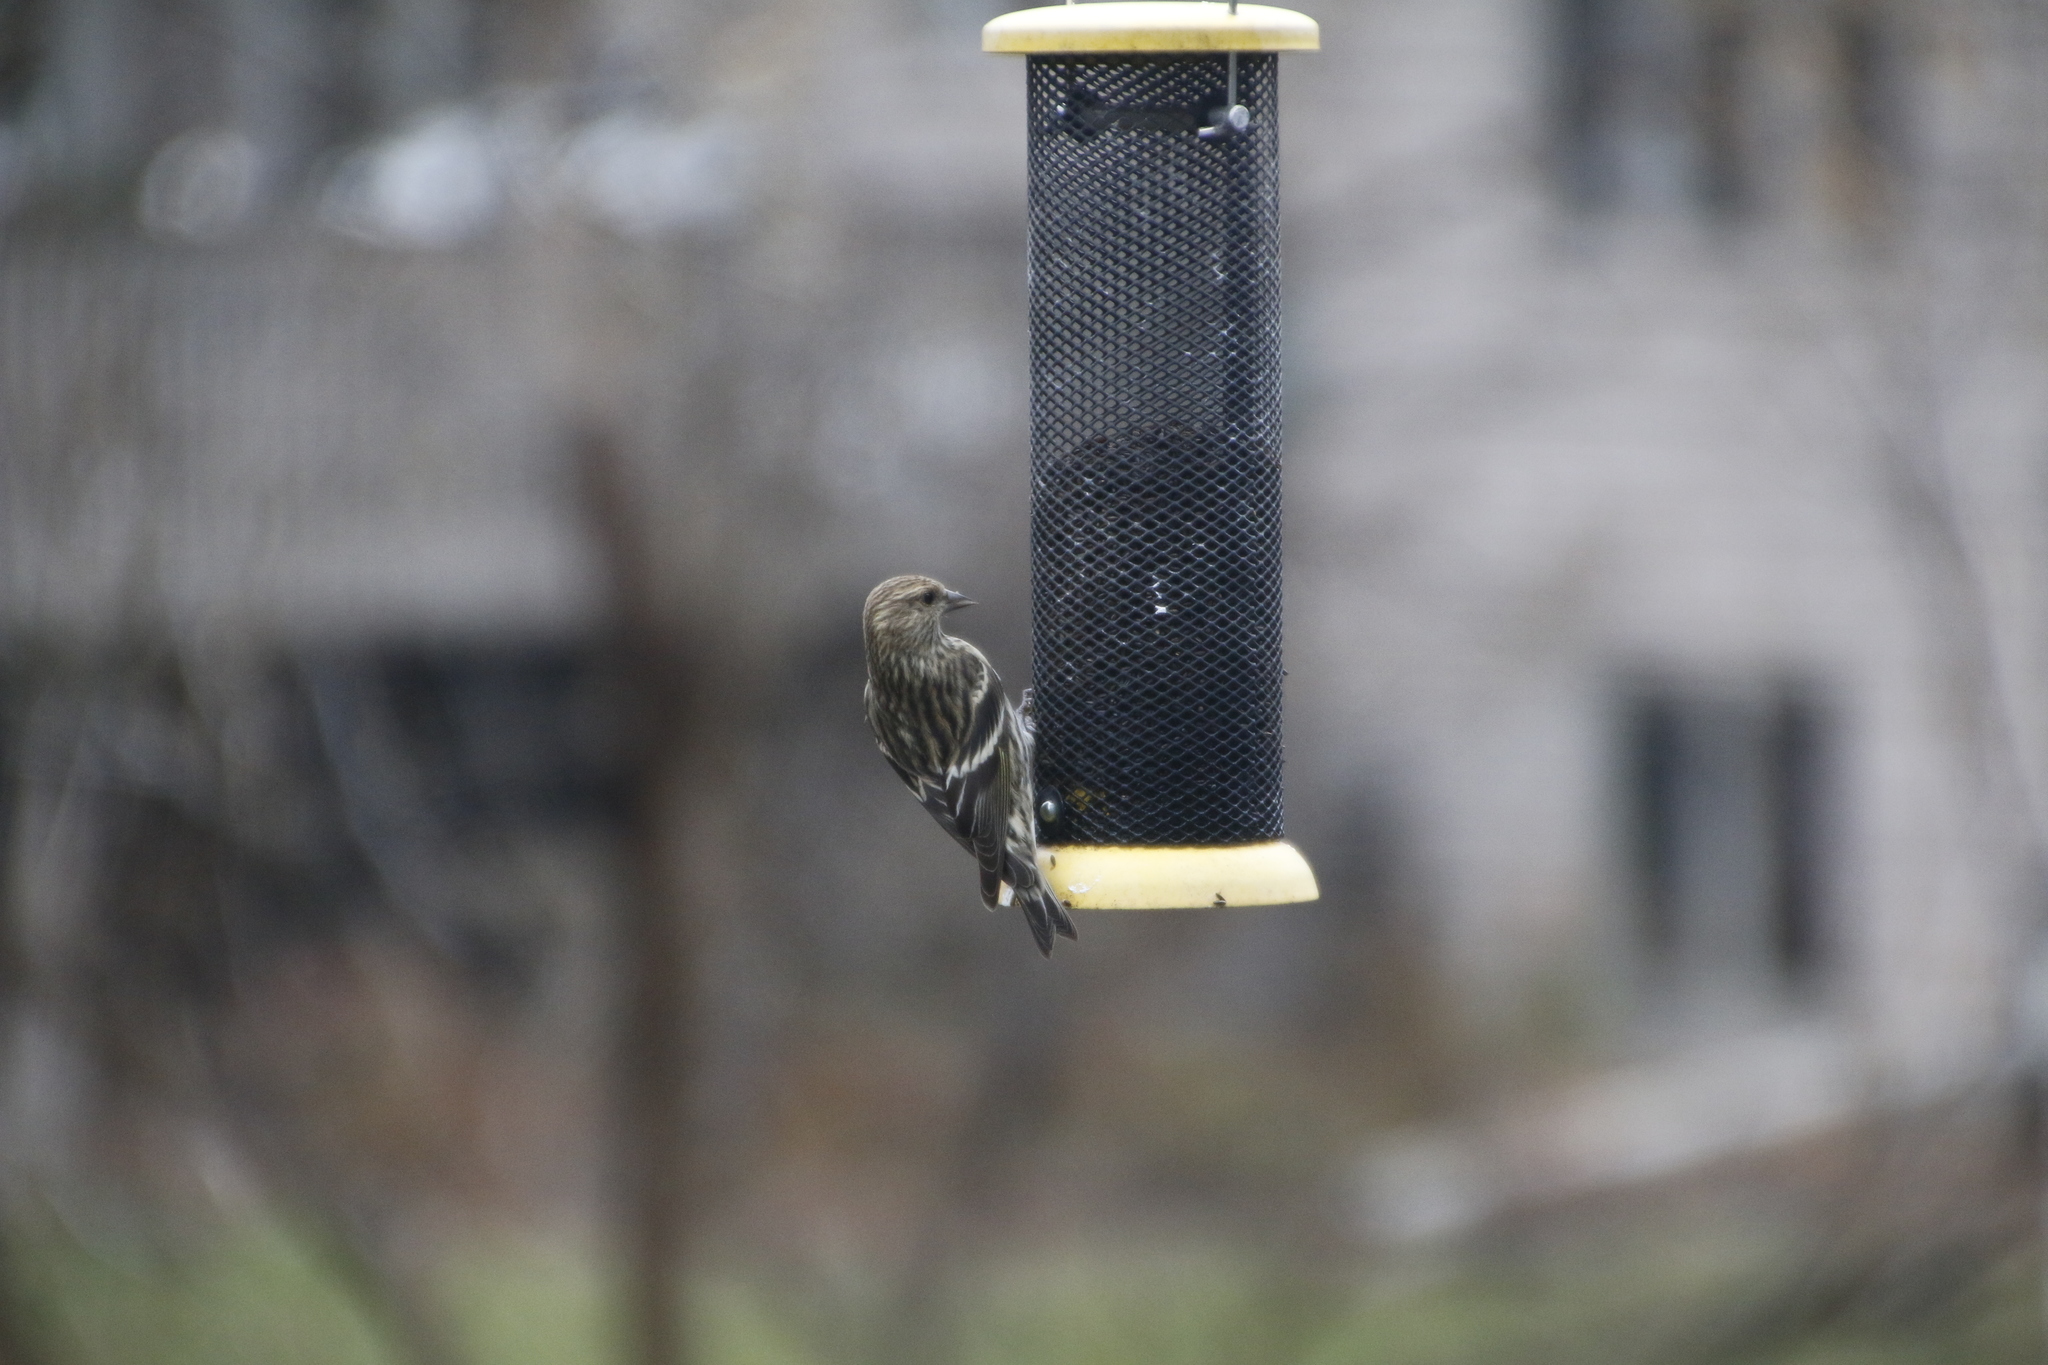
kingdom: Animalia
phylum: Chordata
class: Aves
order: Passeriformes
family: Fringillidae
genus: Spinus
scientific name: Spinus pinus
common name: Pine siskin
